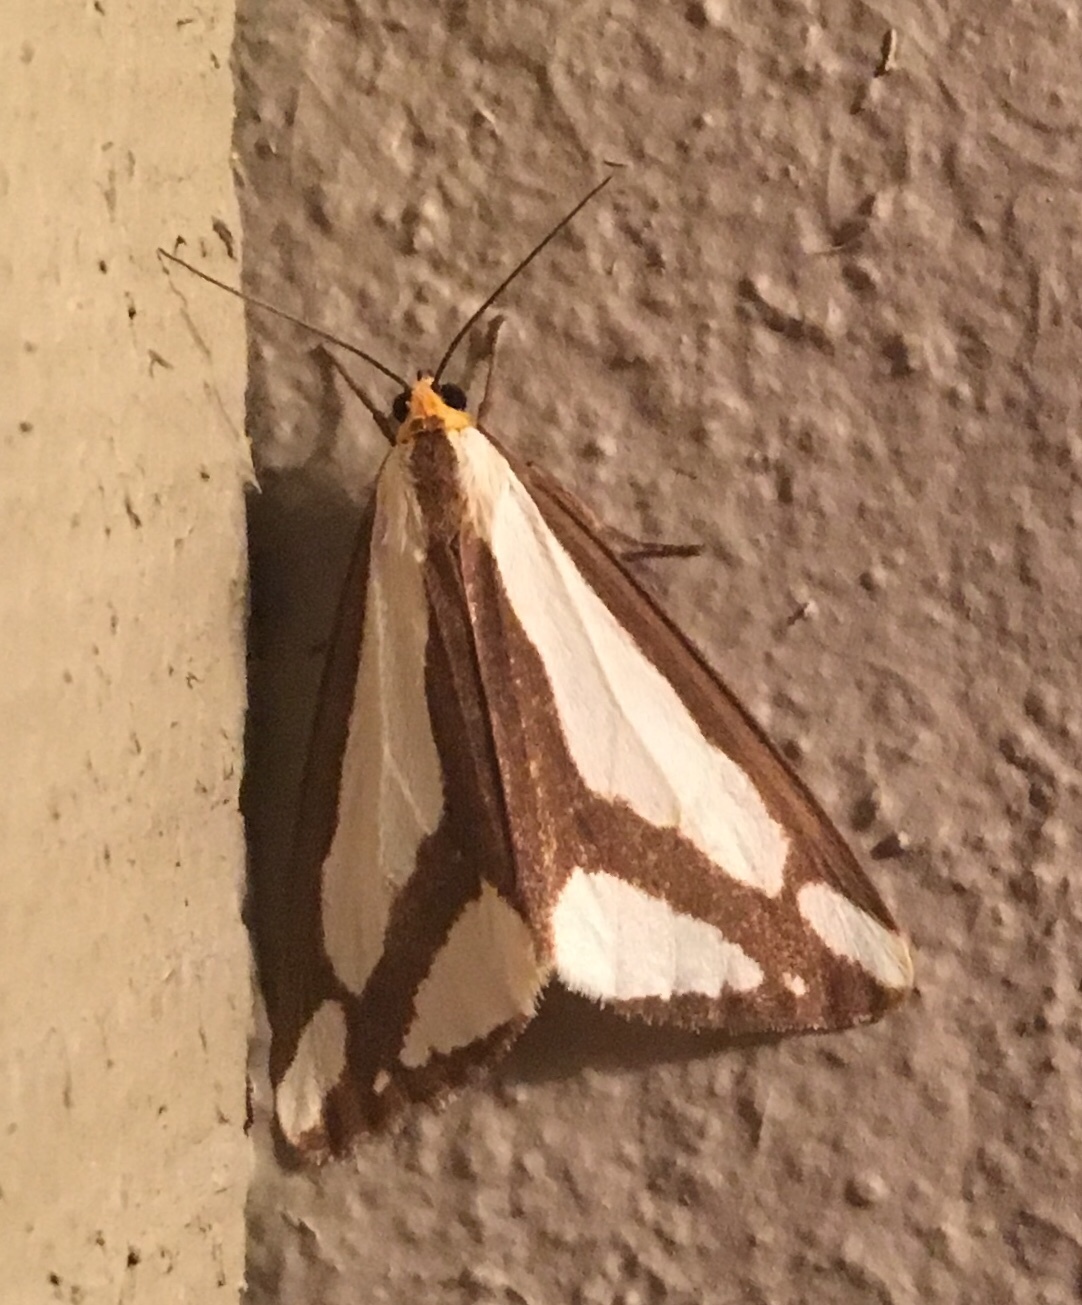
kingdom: Animalia
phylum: Arthropoda
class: Insecta
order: Lepidoptera
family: Erebidae
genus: Haploa
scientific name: Haploa lecontei
